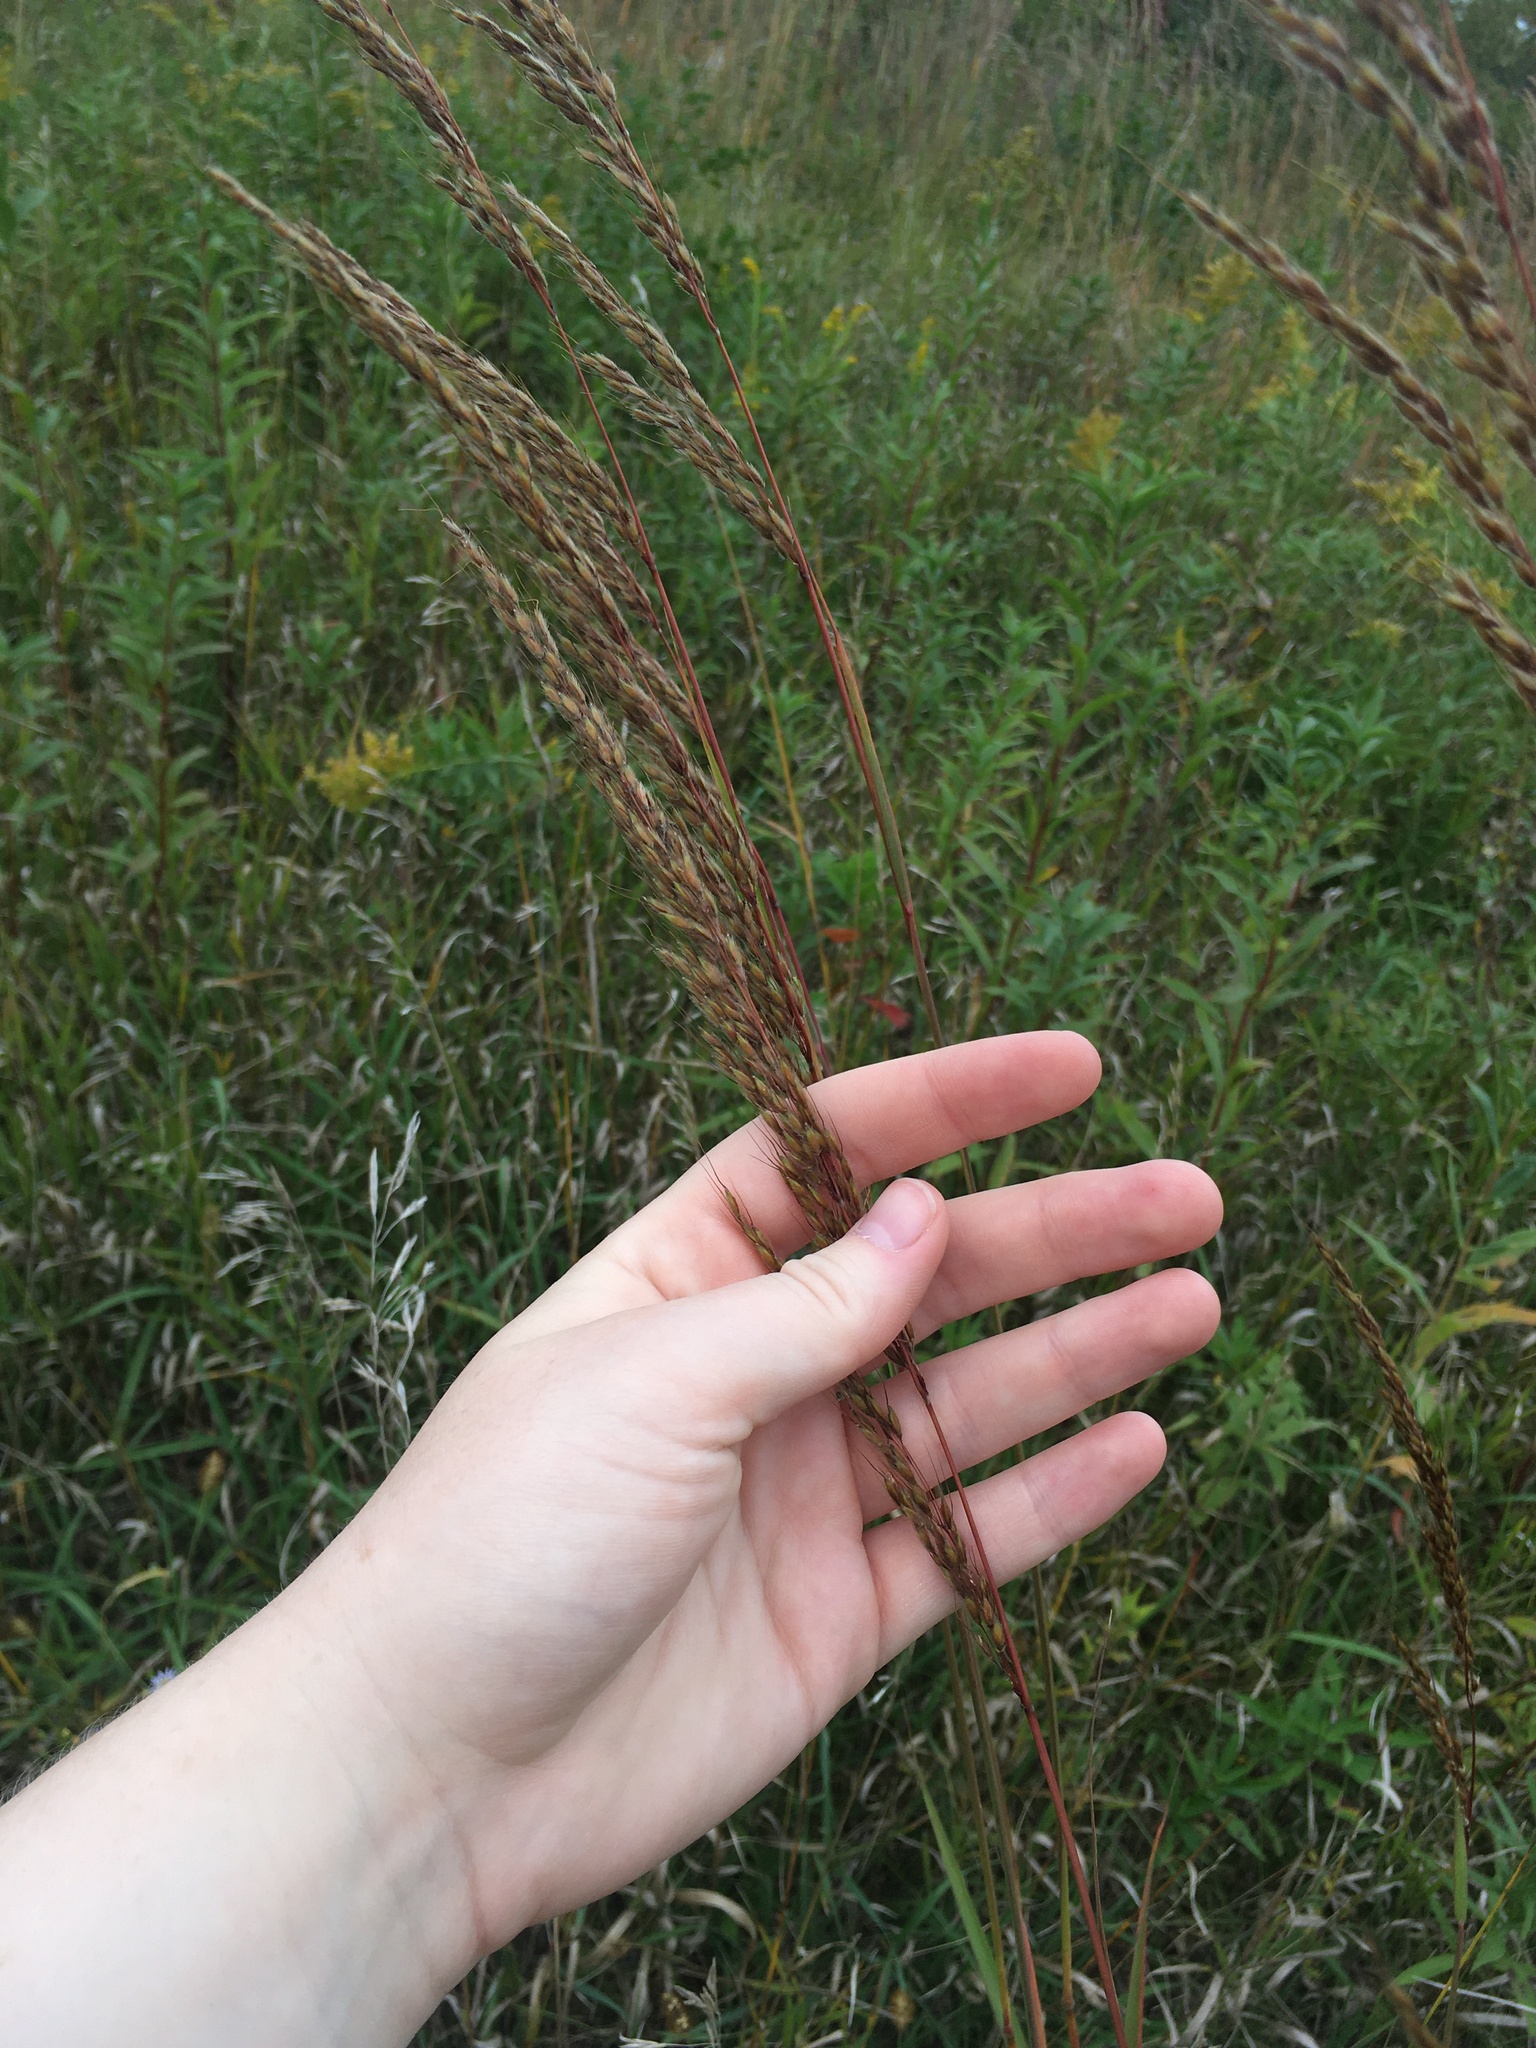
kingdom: Plantae
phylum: Tracheophyta
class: Liliopsida
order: Poales
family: Poaceae
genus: Sorghastrum
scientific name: Sorghastrum nutans
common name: Indian grass
